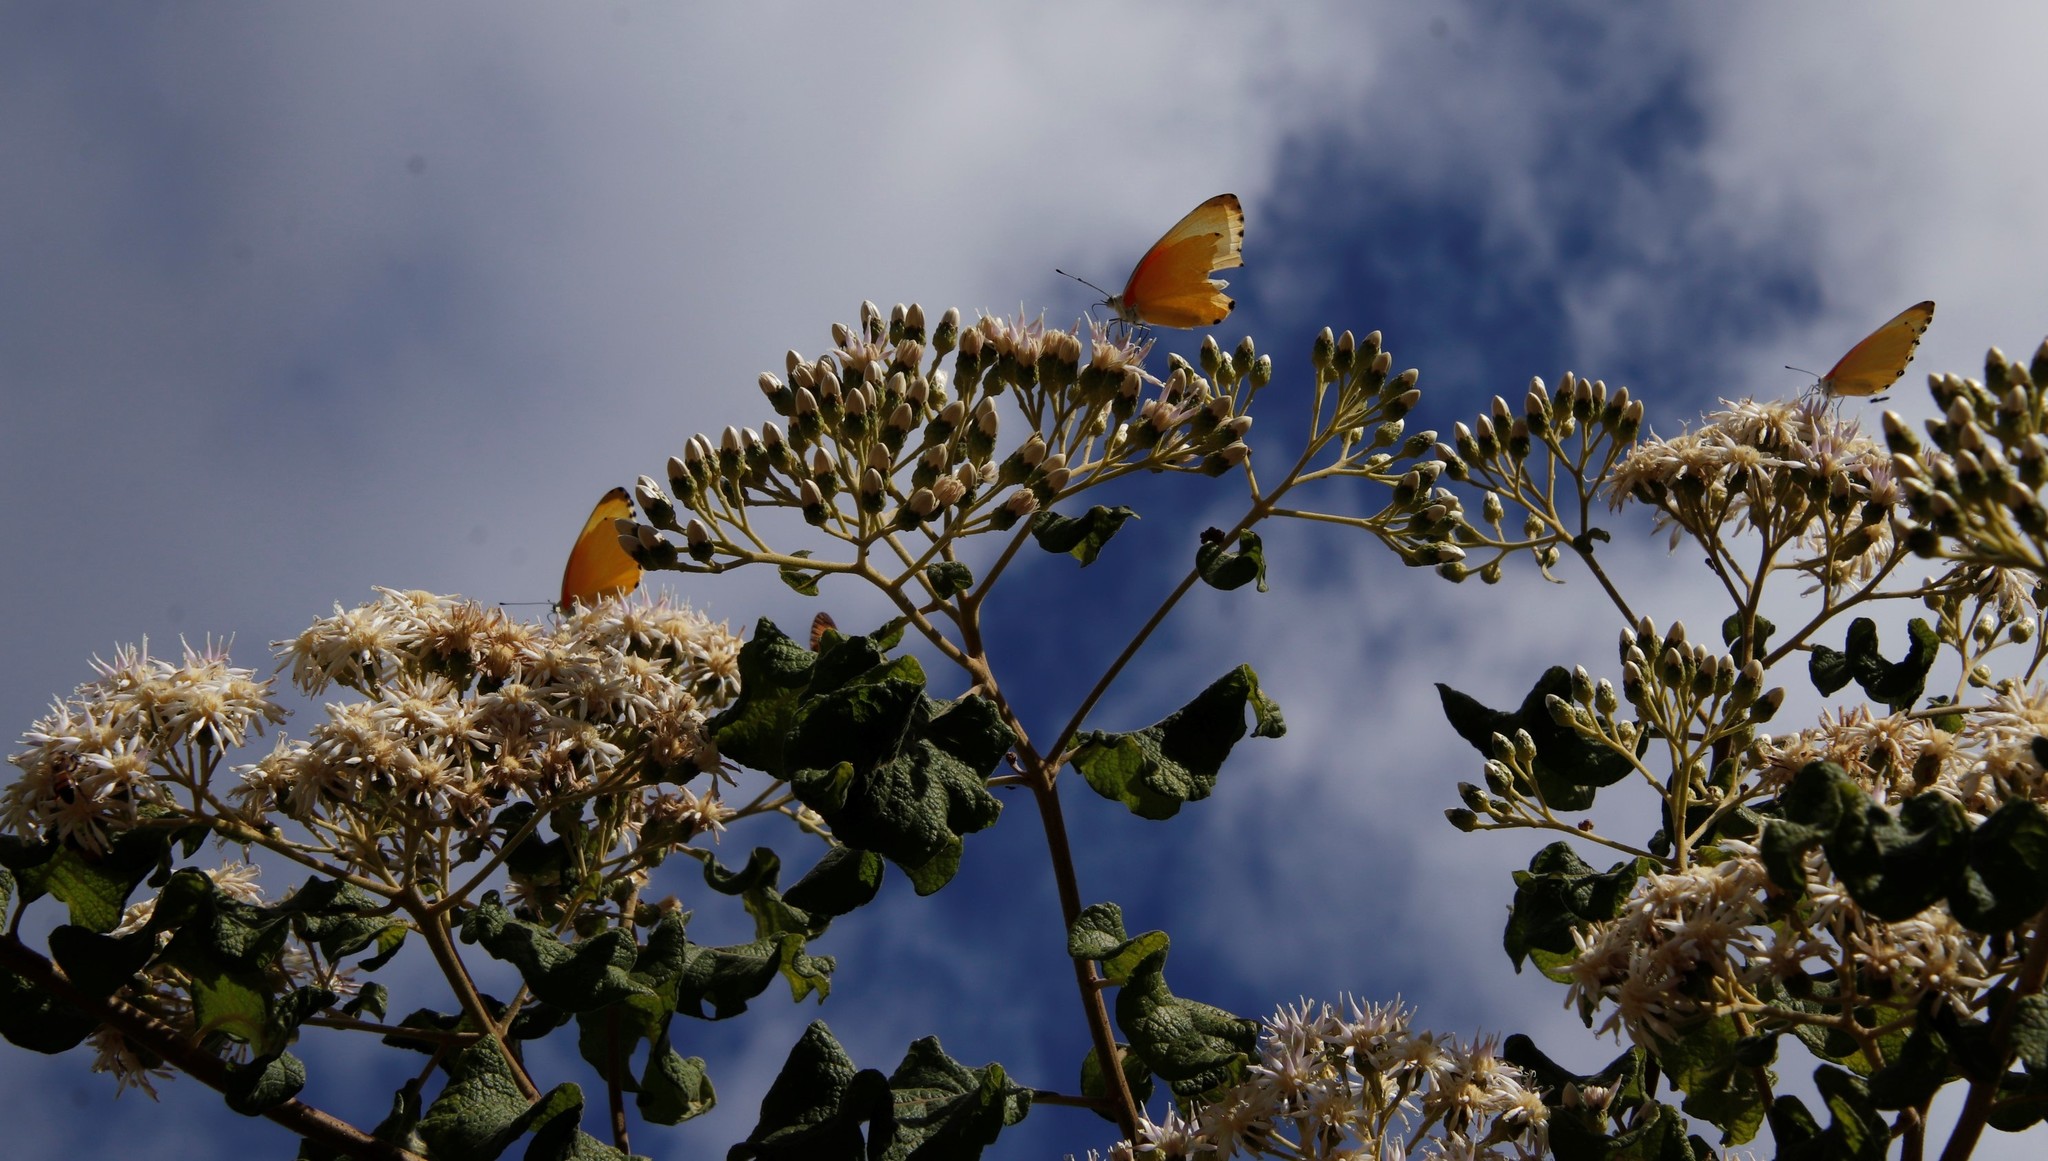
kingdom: Animalia
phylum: Arthropoda
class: Insecta
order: Lepidoptera
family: Pieridae
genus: Mylothris
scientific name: Mylothris agathina
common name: Eastern dotted border
